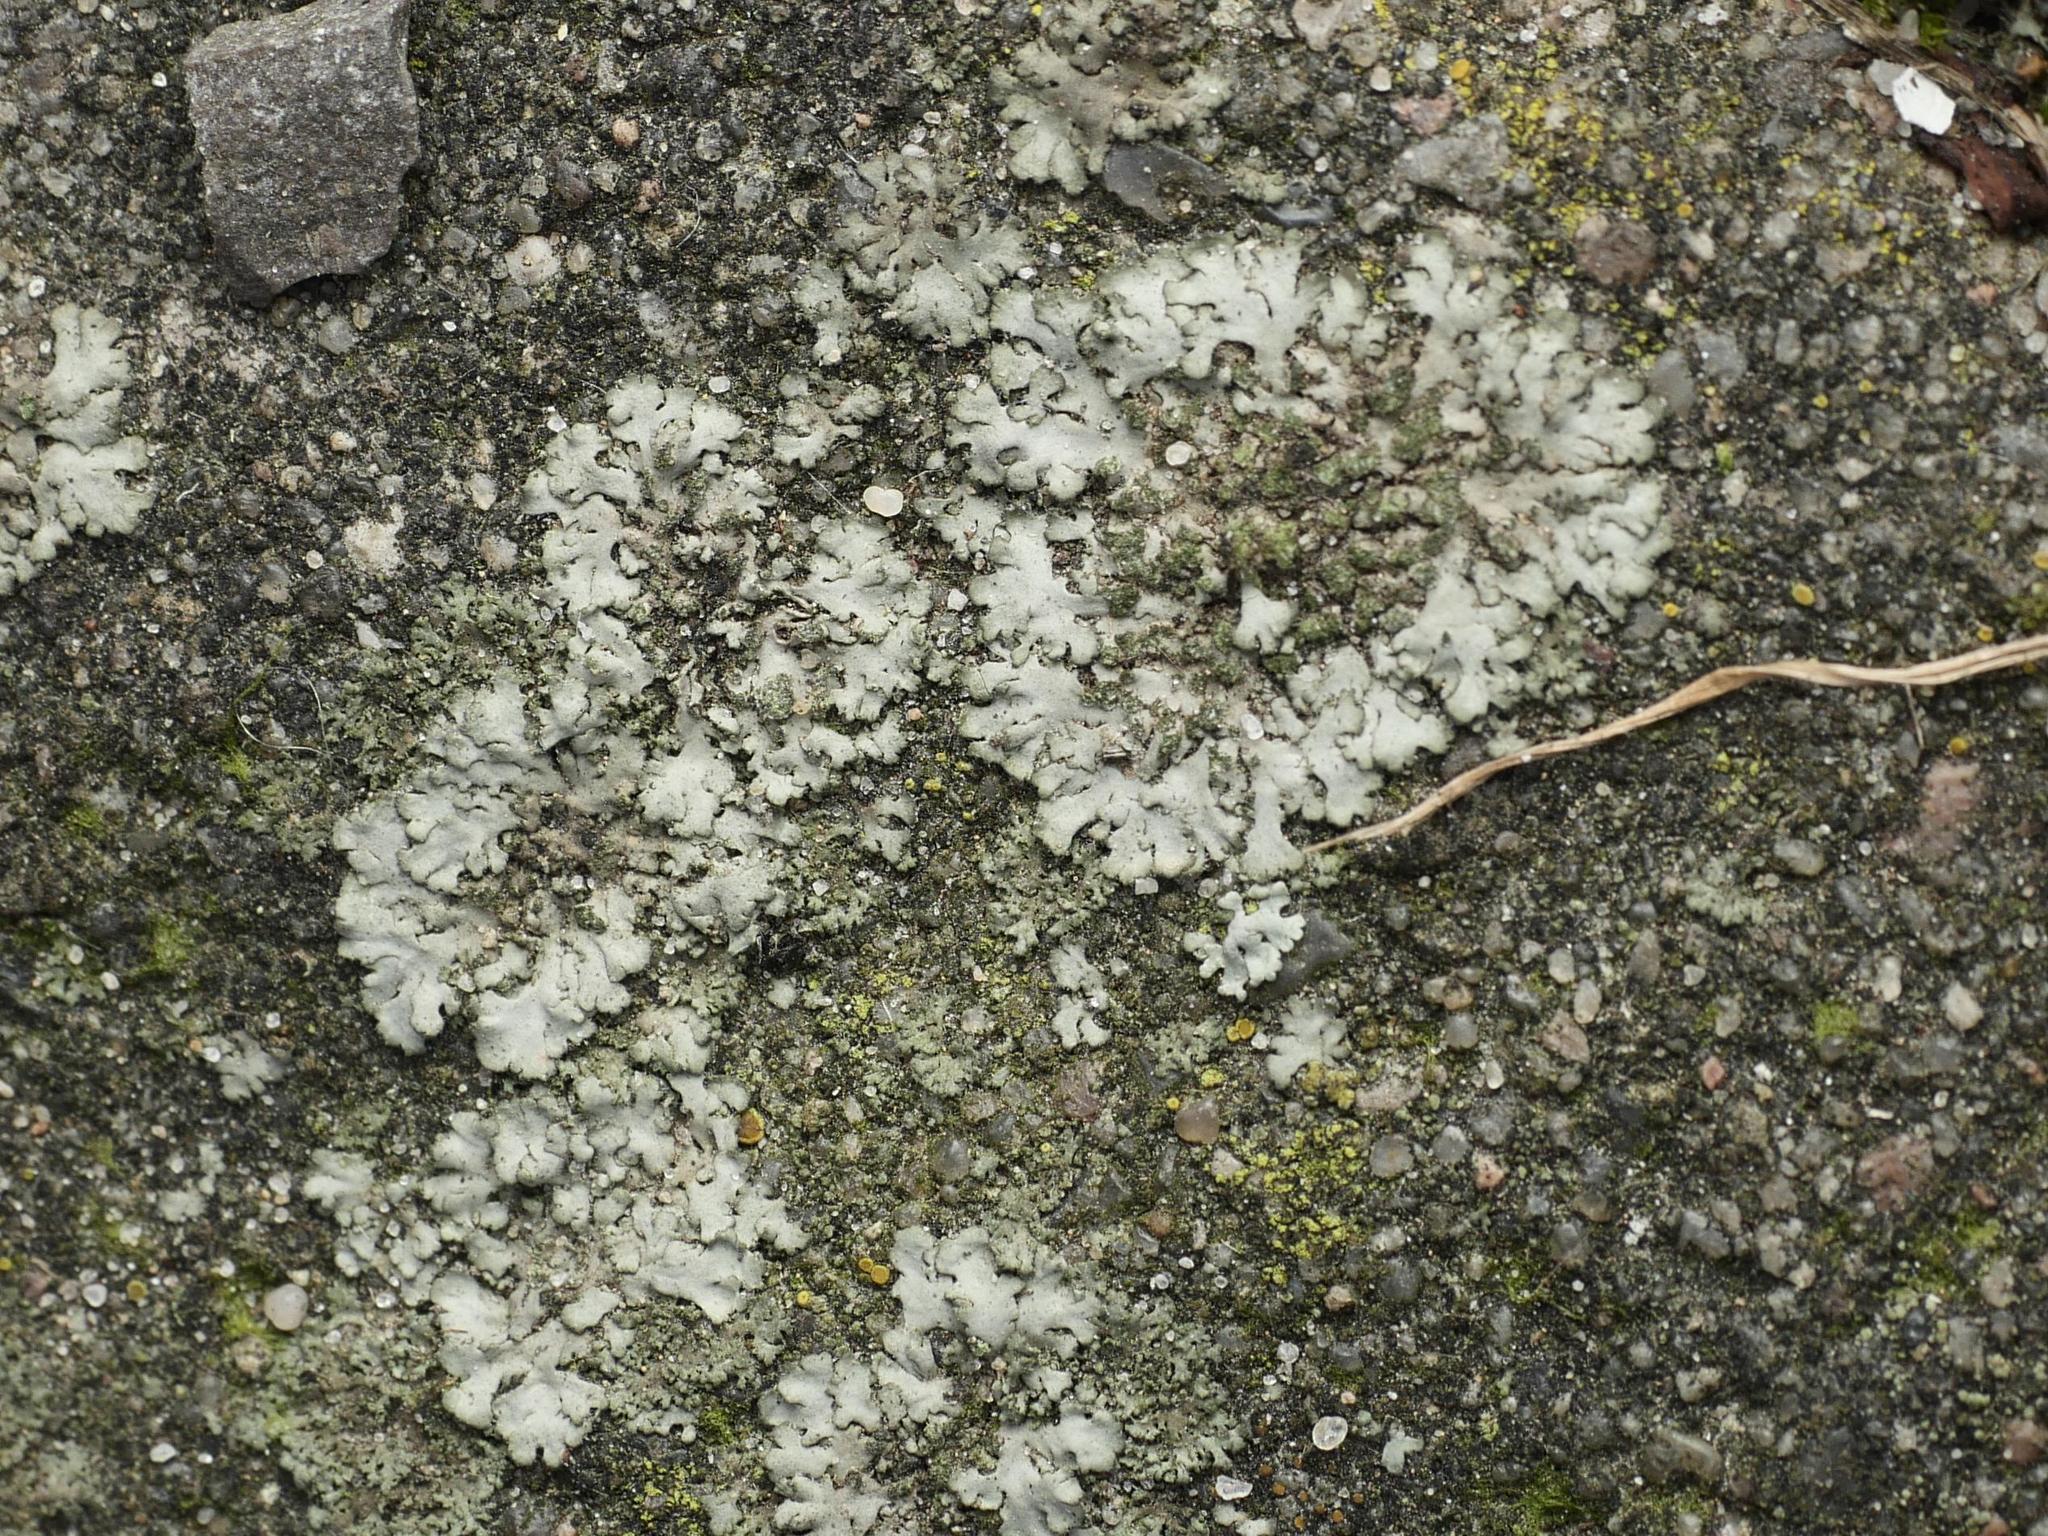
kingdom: Fungi
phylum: Ascomycota
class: Lecanoromycetes
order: Caliciales
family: Physciaceae
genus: Phaeophyscia
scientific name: Phaeophyscia orbicularis
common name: Mealy shadow lichen
